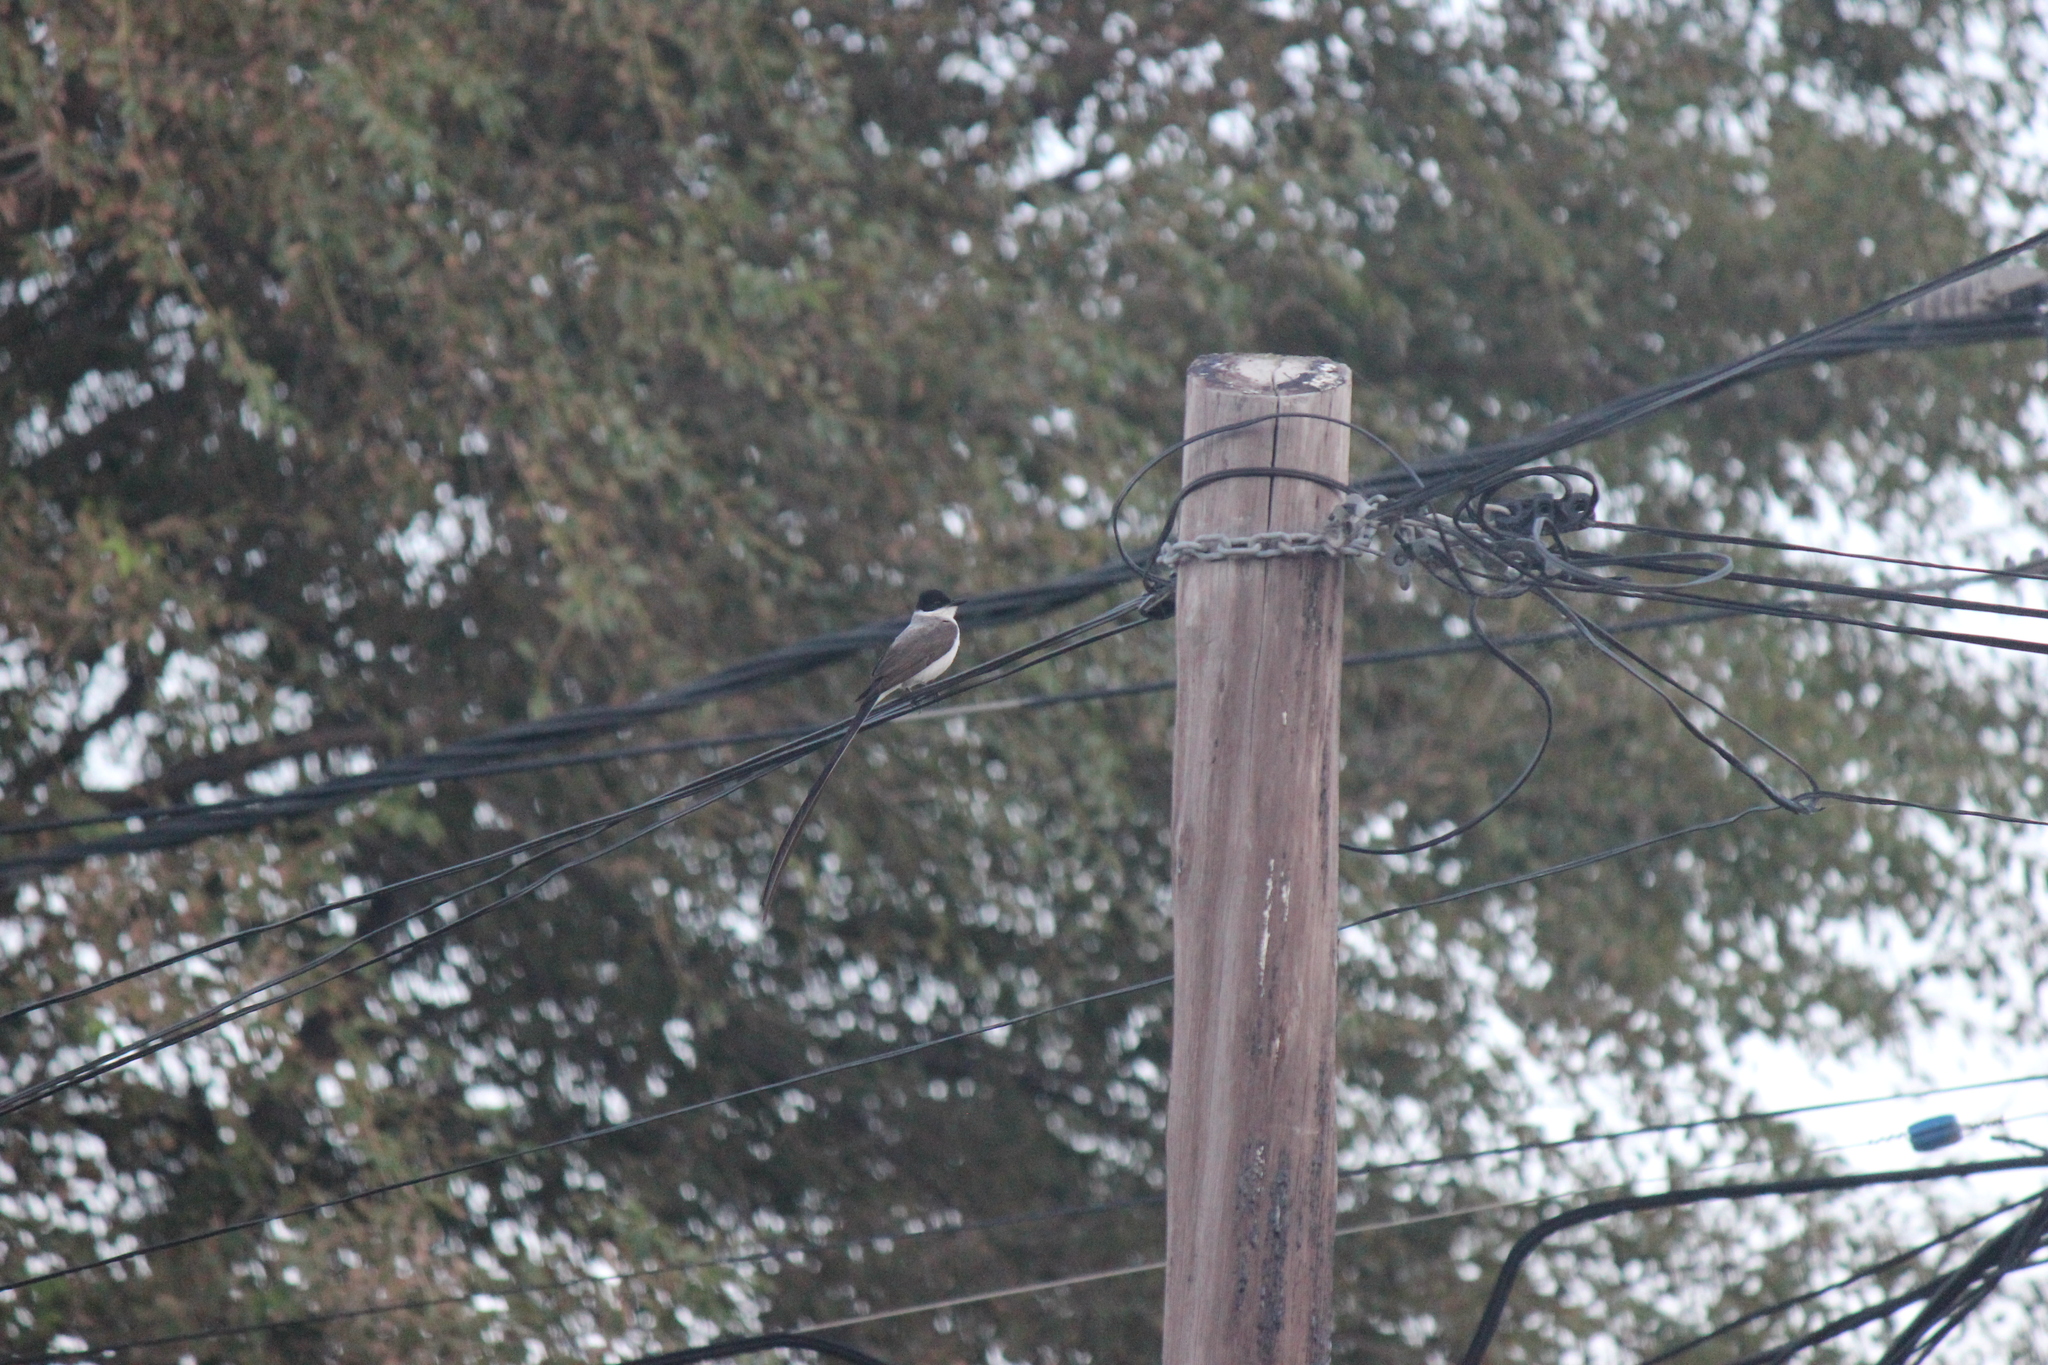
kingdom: Animalia
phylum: Chordata
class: Aves
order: Passeriformes
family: Tyrannidae
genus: Tyrannus
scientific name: Tyrannus savana
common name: Fork-tailed flycatcher
